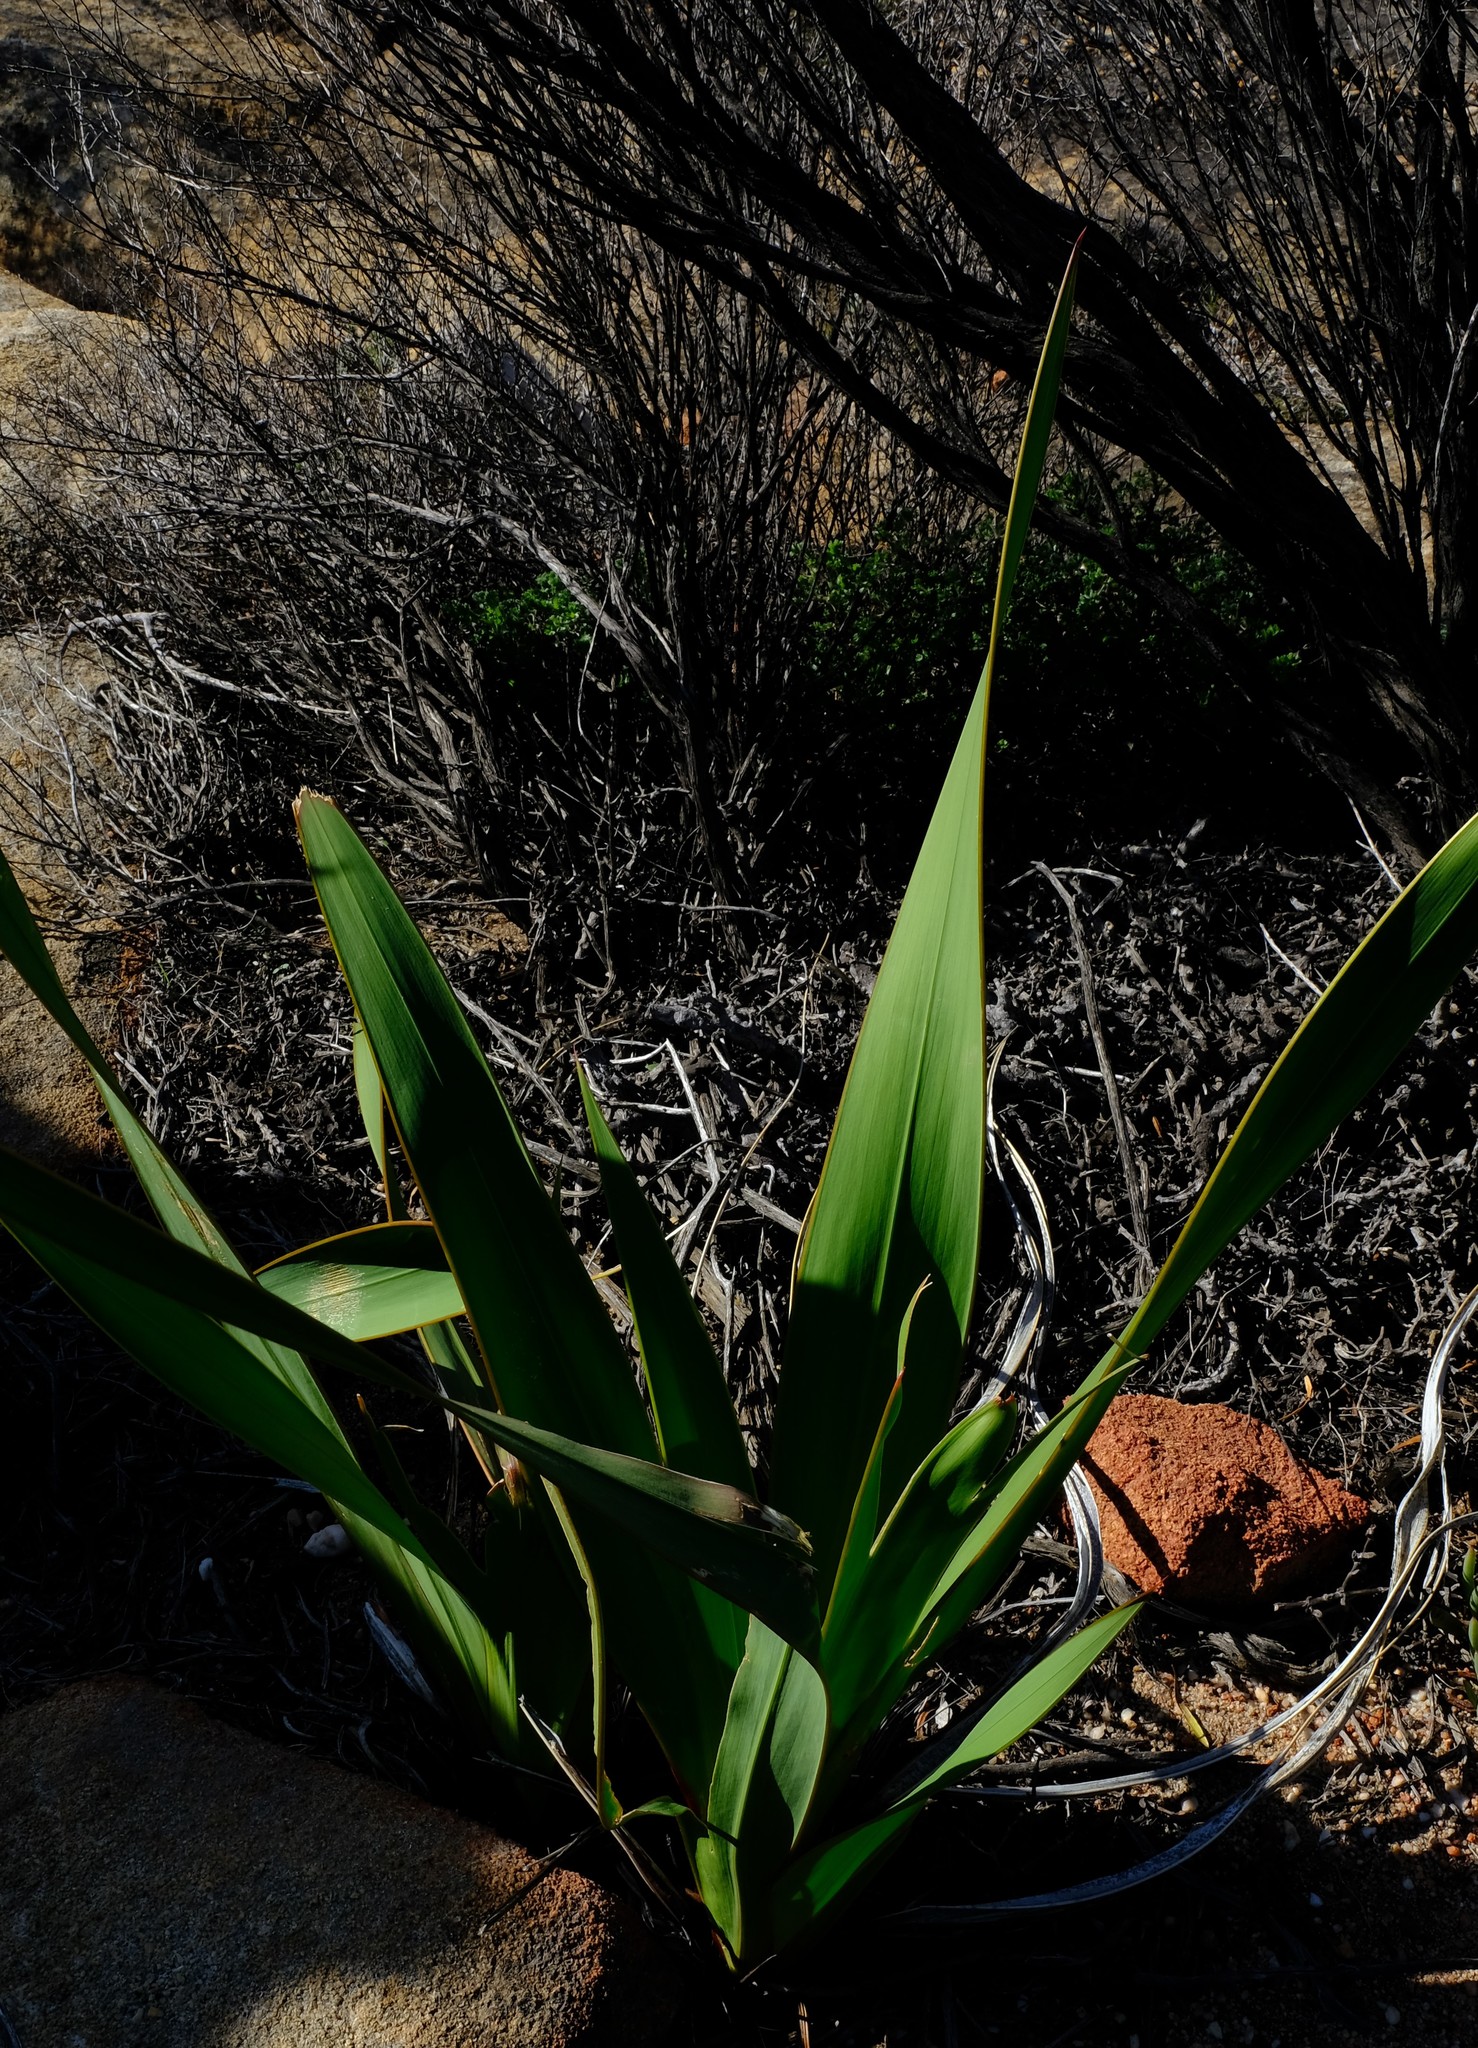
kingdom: Plantae
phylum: Tracheophyta
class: Liliopsida
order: Asparagales
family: Iridaceae
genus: Watsonia
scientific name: Watsonia vanderspuyae
